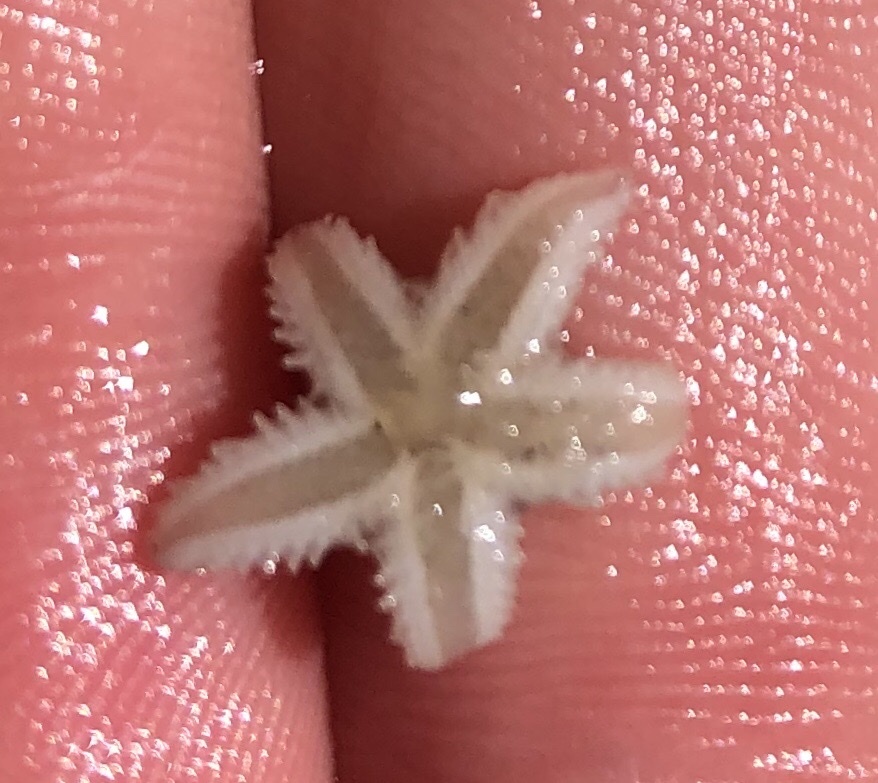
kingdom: Animalia
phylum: Echinodermata
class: Asteroidea
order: Forcipulatida
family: Asteriidae
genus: Asterias
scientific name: Asterias rubens
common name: Common starfish
